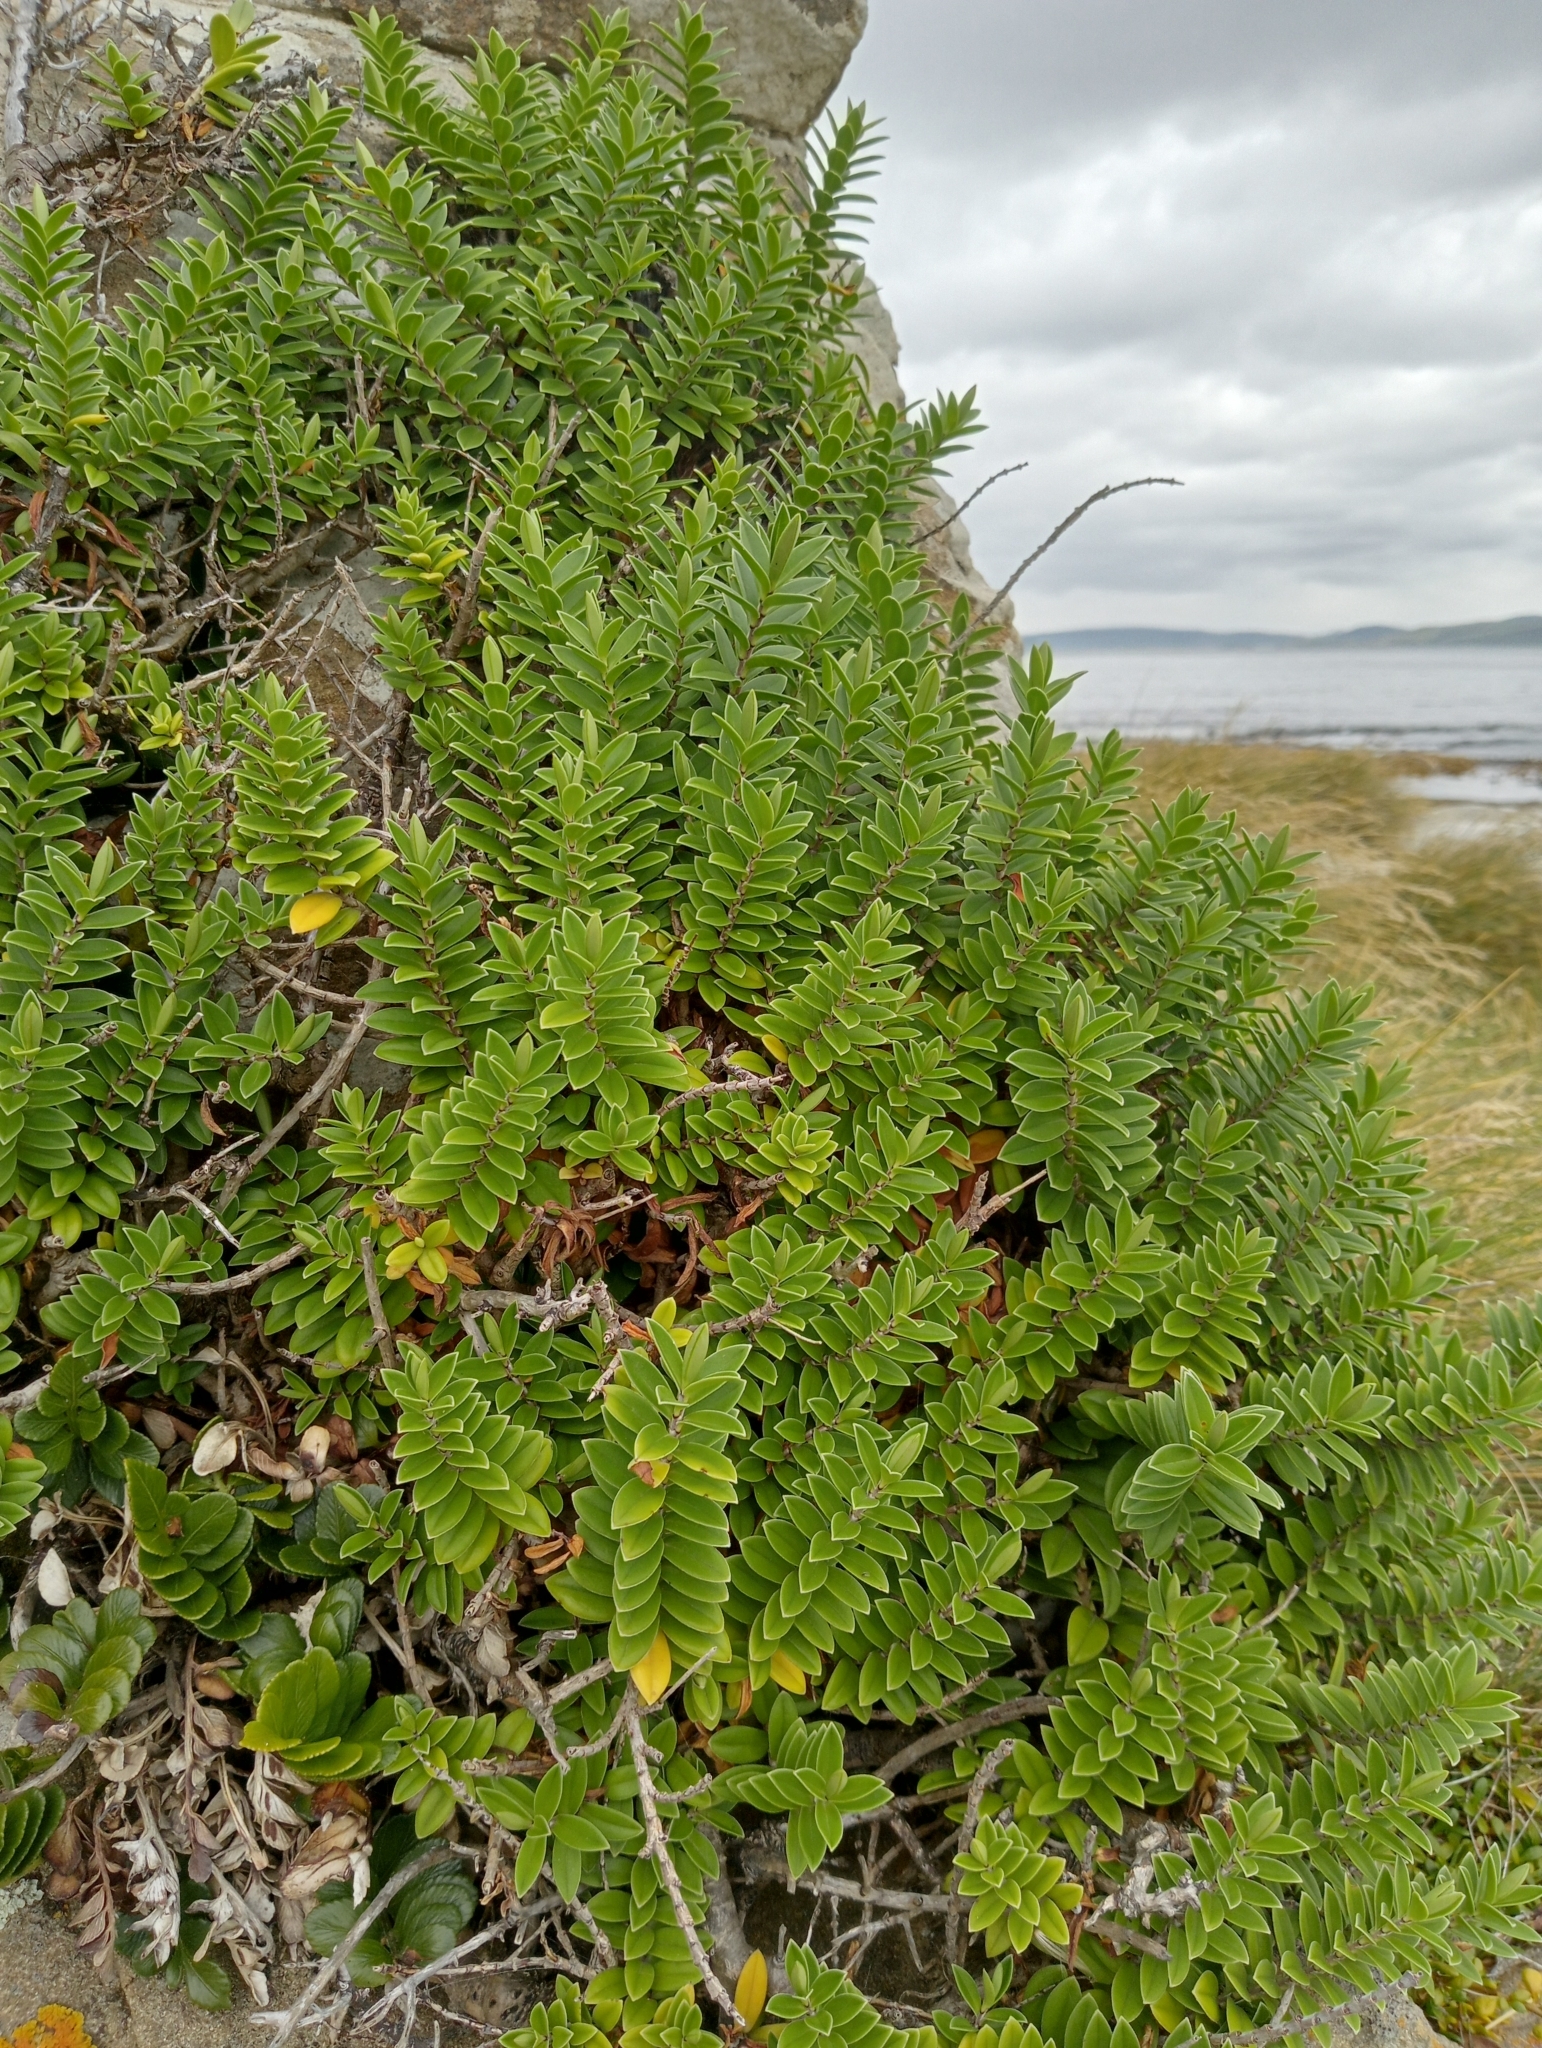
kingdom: Plantae
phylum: Tracheophyta
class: Magnoliopsida
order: Lamiales
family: Plantaginaceae
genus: Veronica
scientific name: Veronica elliptica
